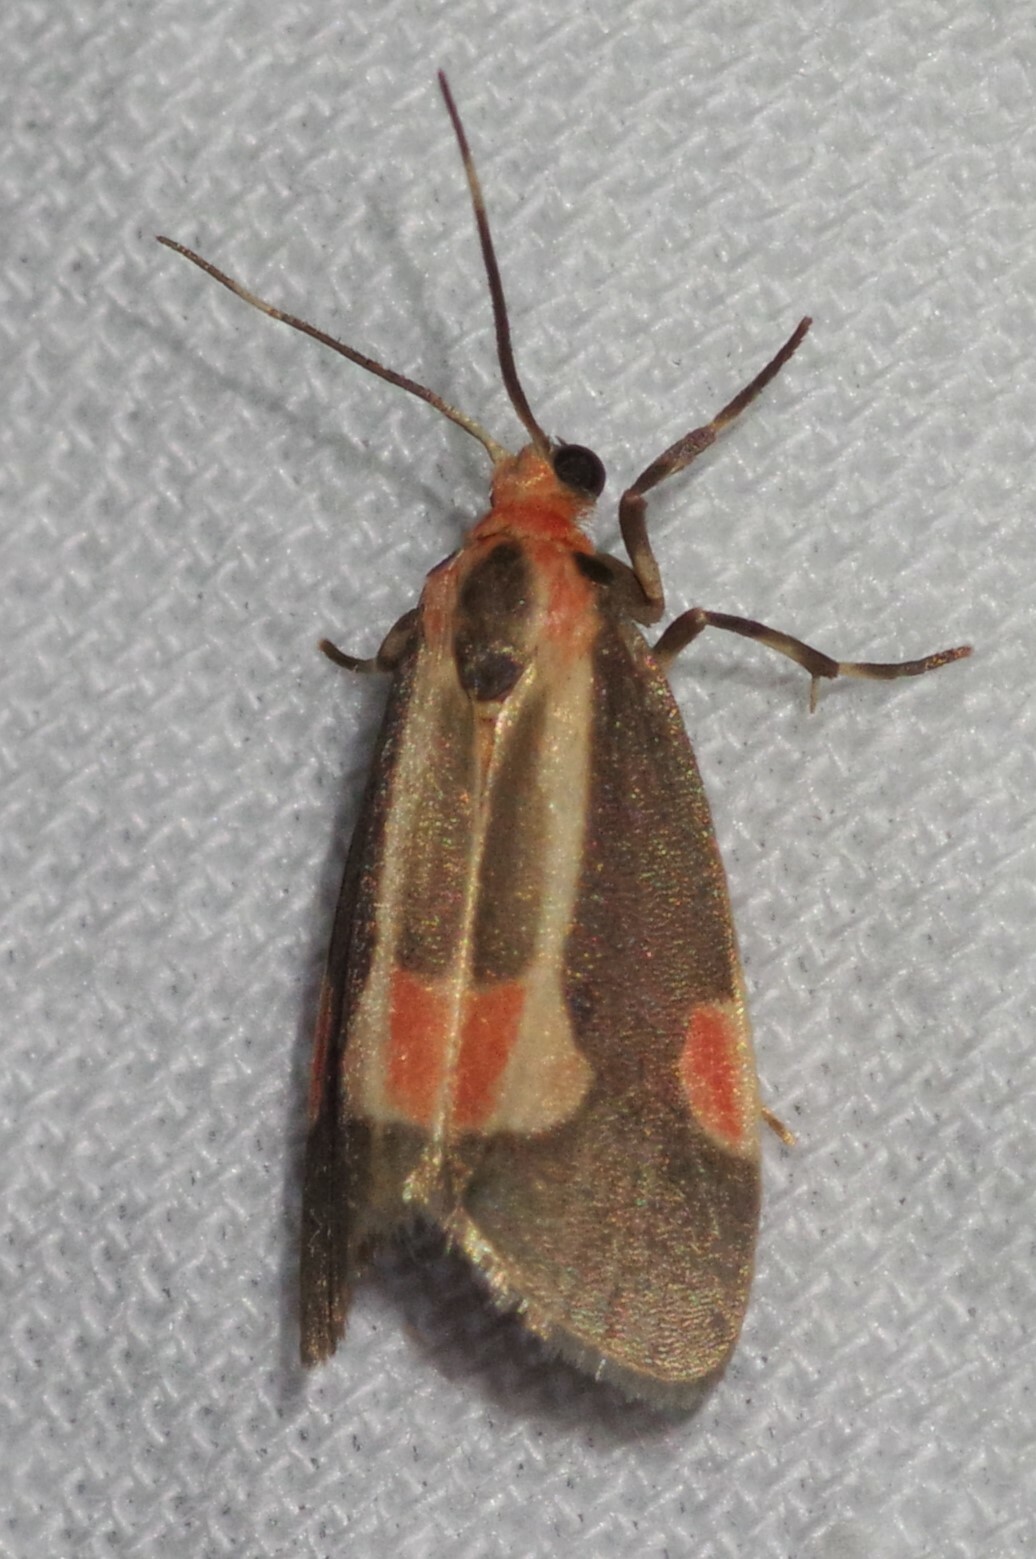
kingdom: Animalia
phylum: Arthropoda
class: Insecta
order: Lepidoptera
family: Erebidae
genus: Cisthene
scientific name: Cisthene packardii
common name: Packard's lichen moth
